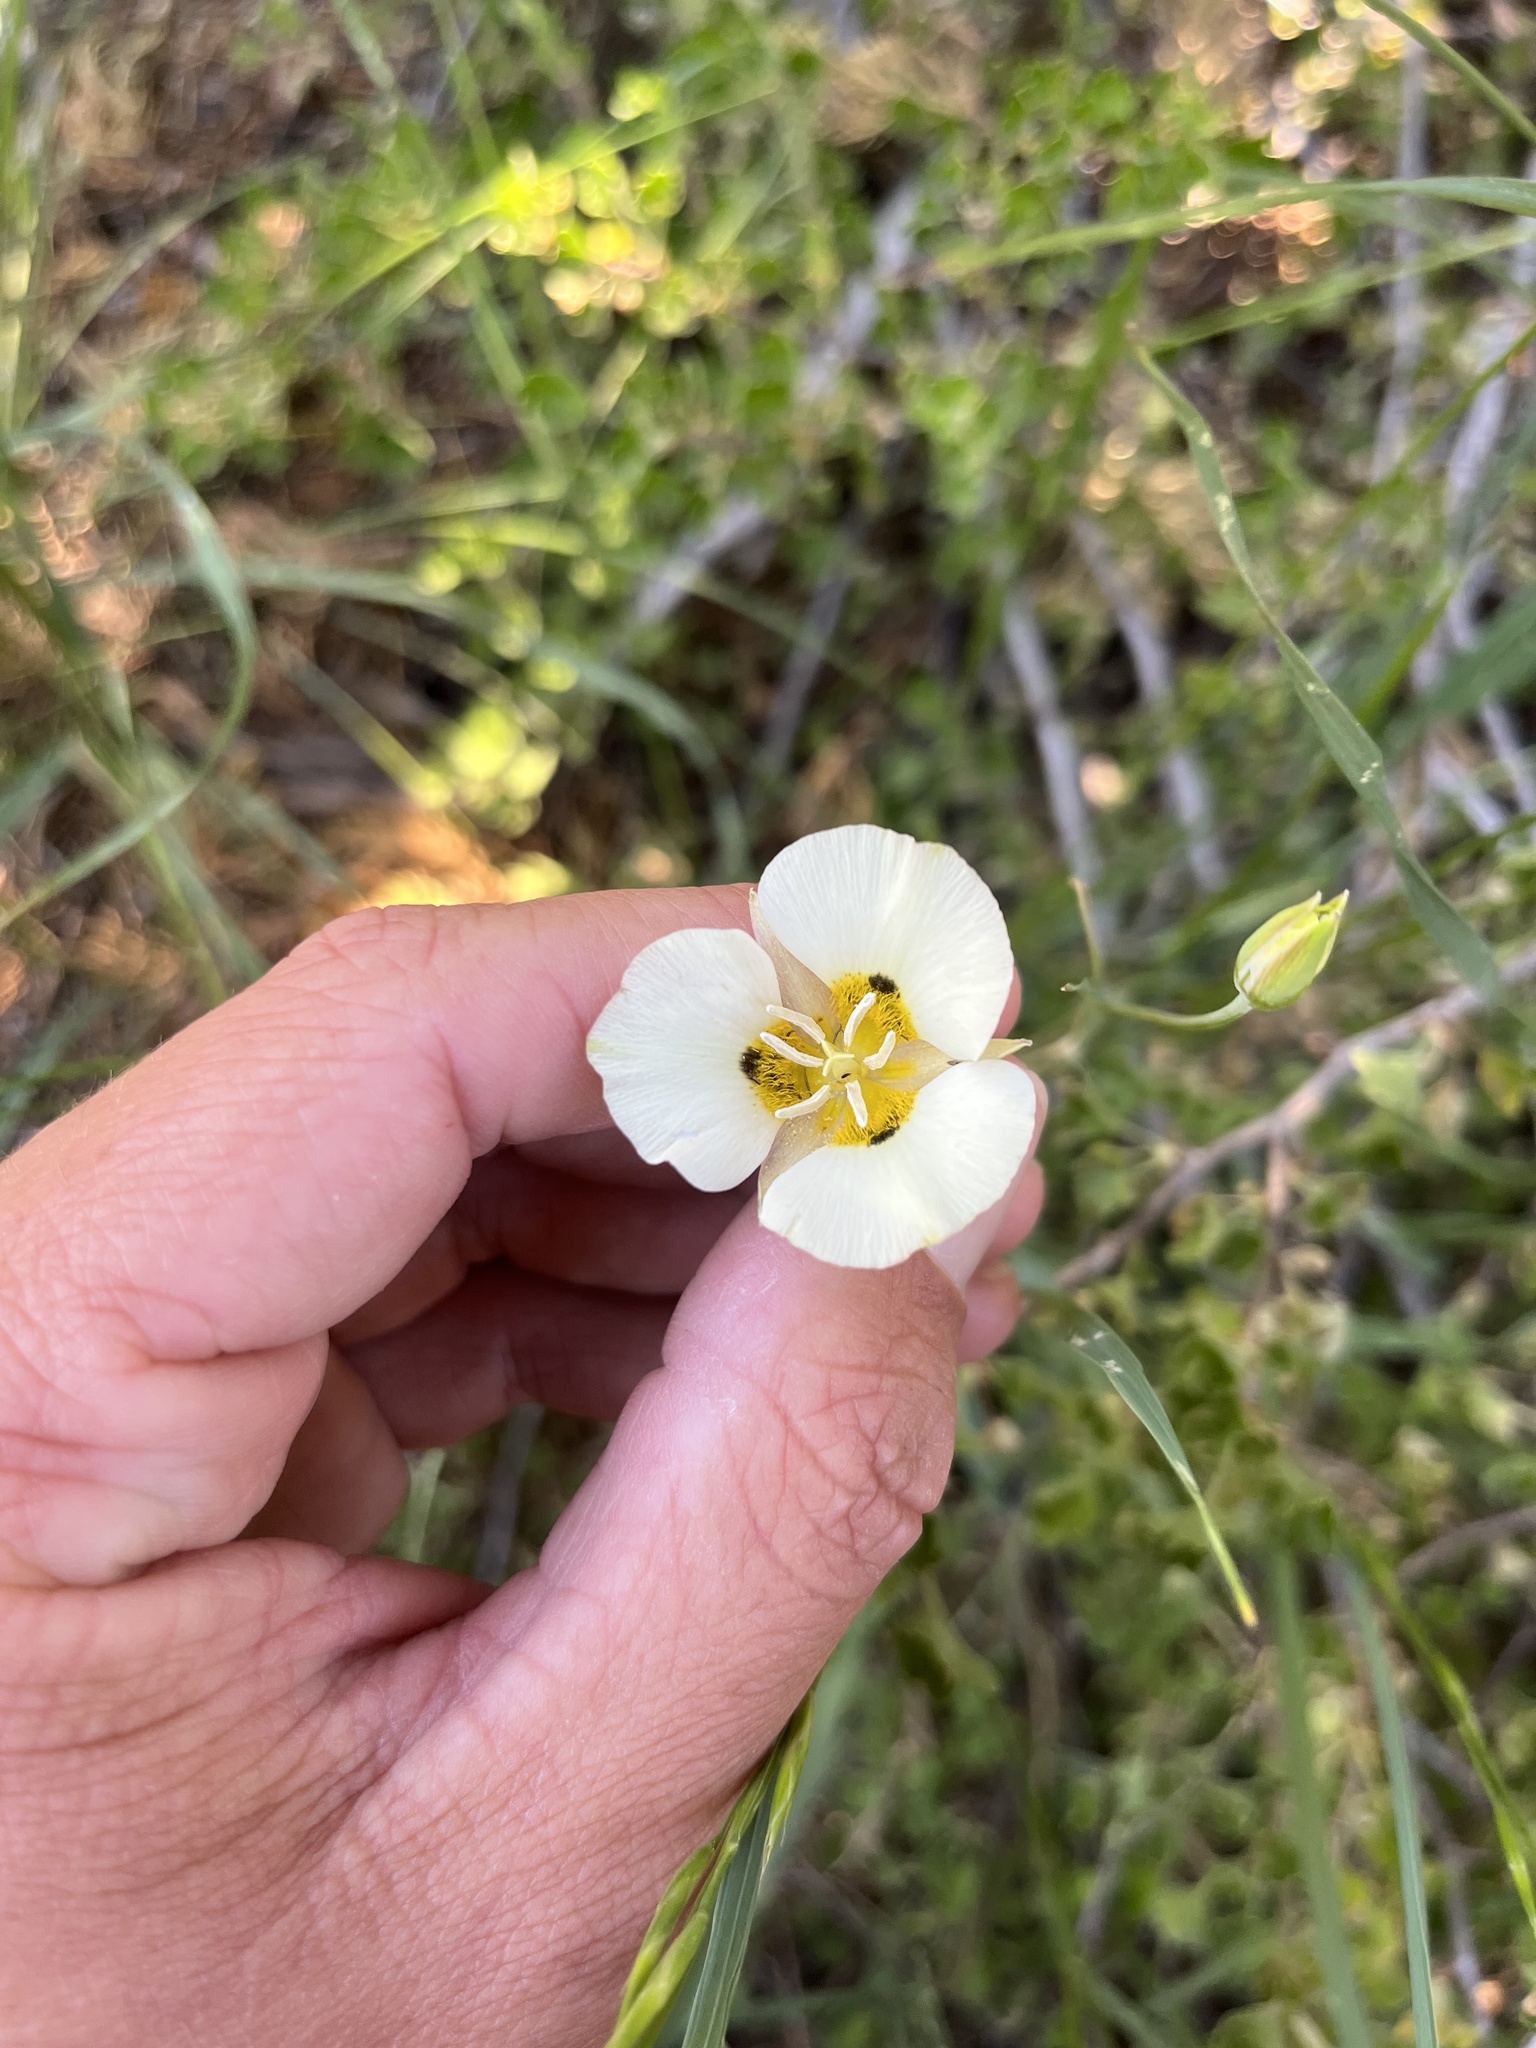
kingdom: Plantae
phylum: Tracheophyta
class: Liliopsida
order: Liliales
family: Liliaceae
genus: Calochortus
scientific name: Calochortus leichtlinii
